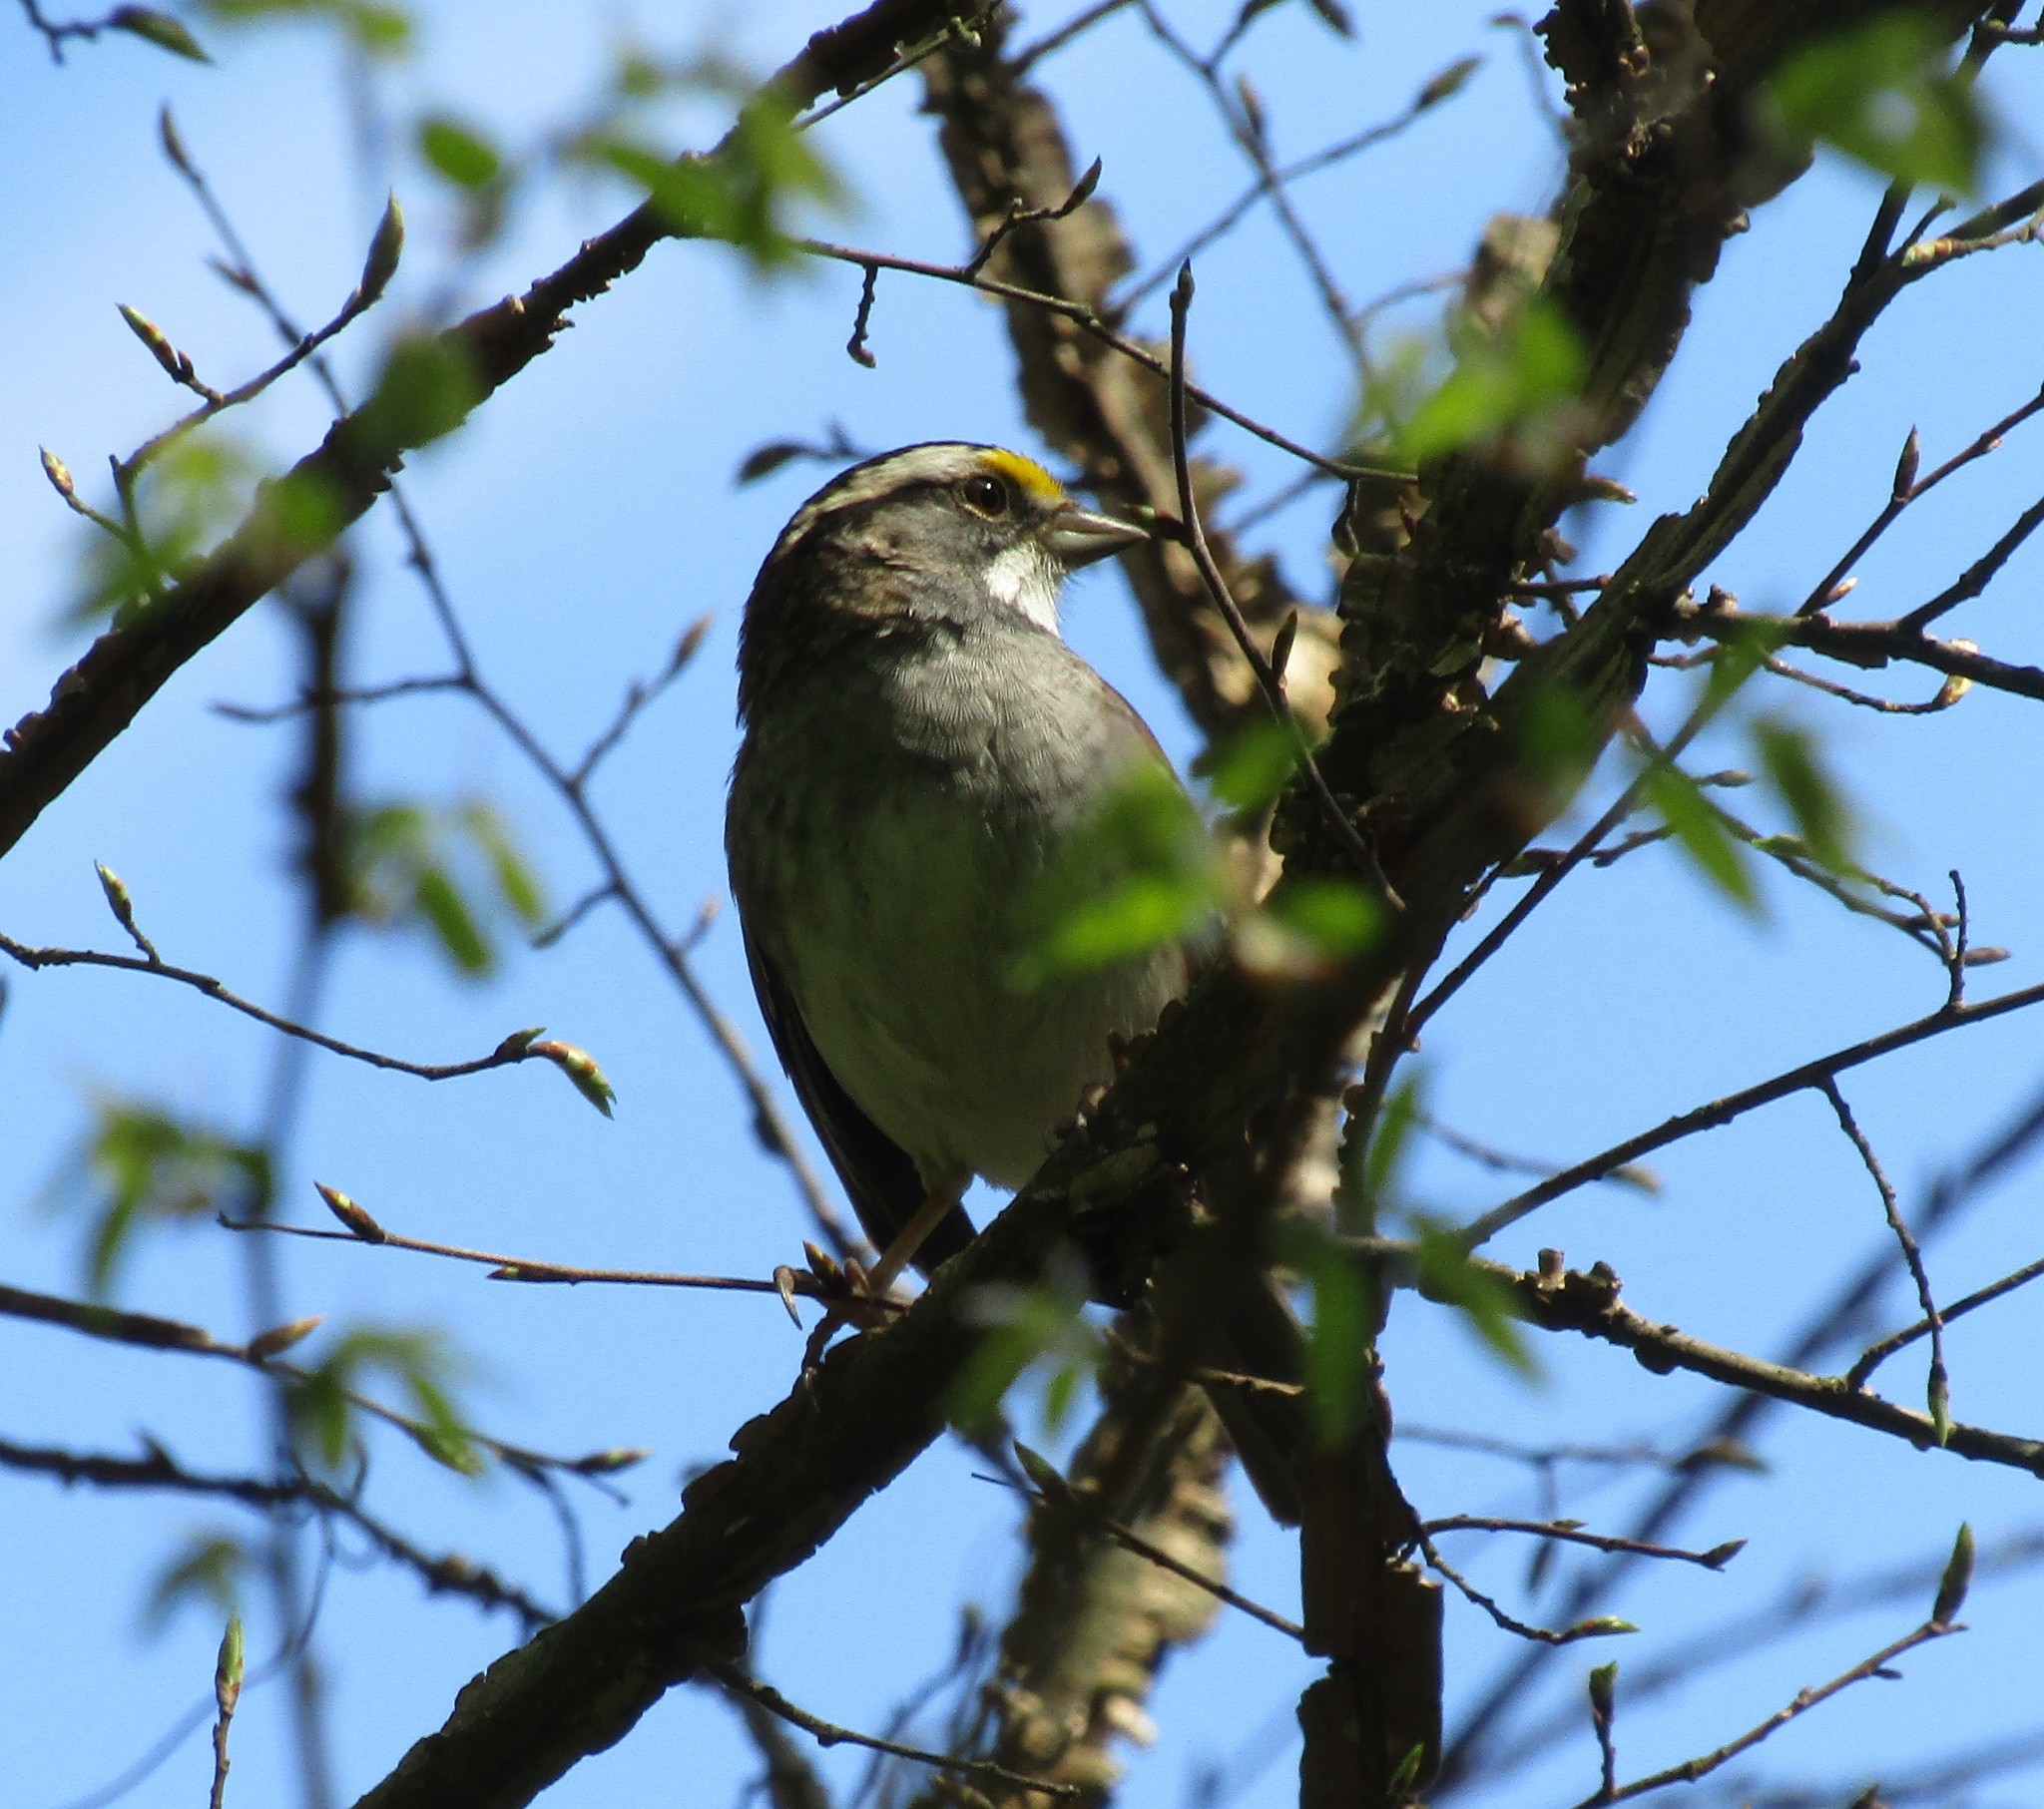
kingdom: Animalia
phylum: Chordata
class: Aves
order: Passeriformes
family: Passerellidae
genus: Zonotrichia
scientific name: Zonotrichia albicollis
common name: White-throated sparrow
